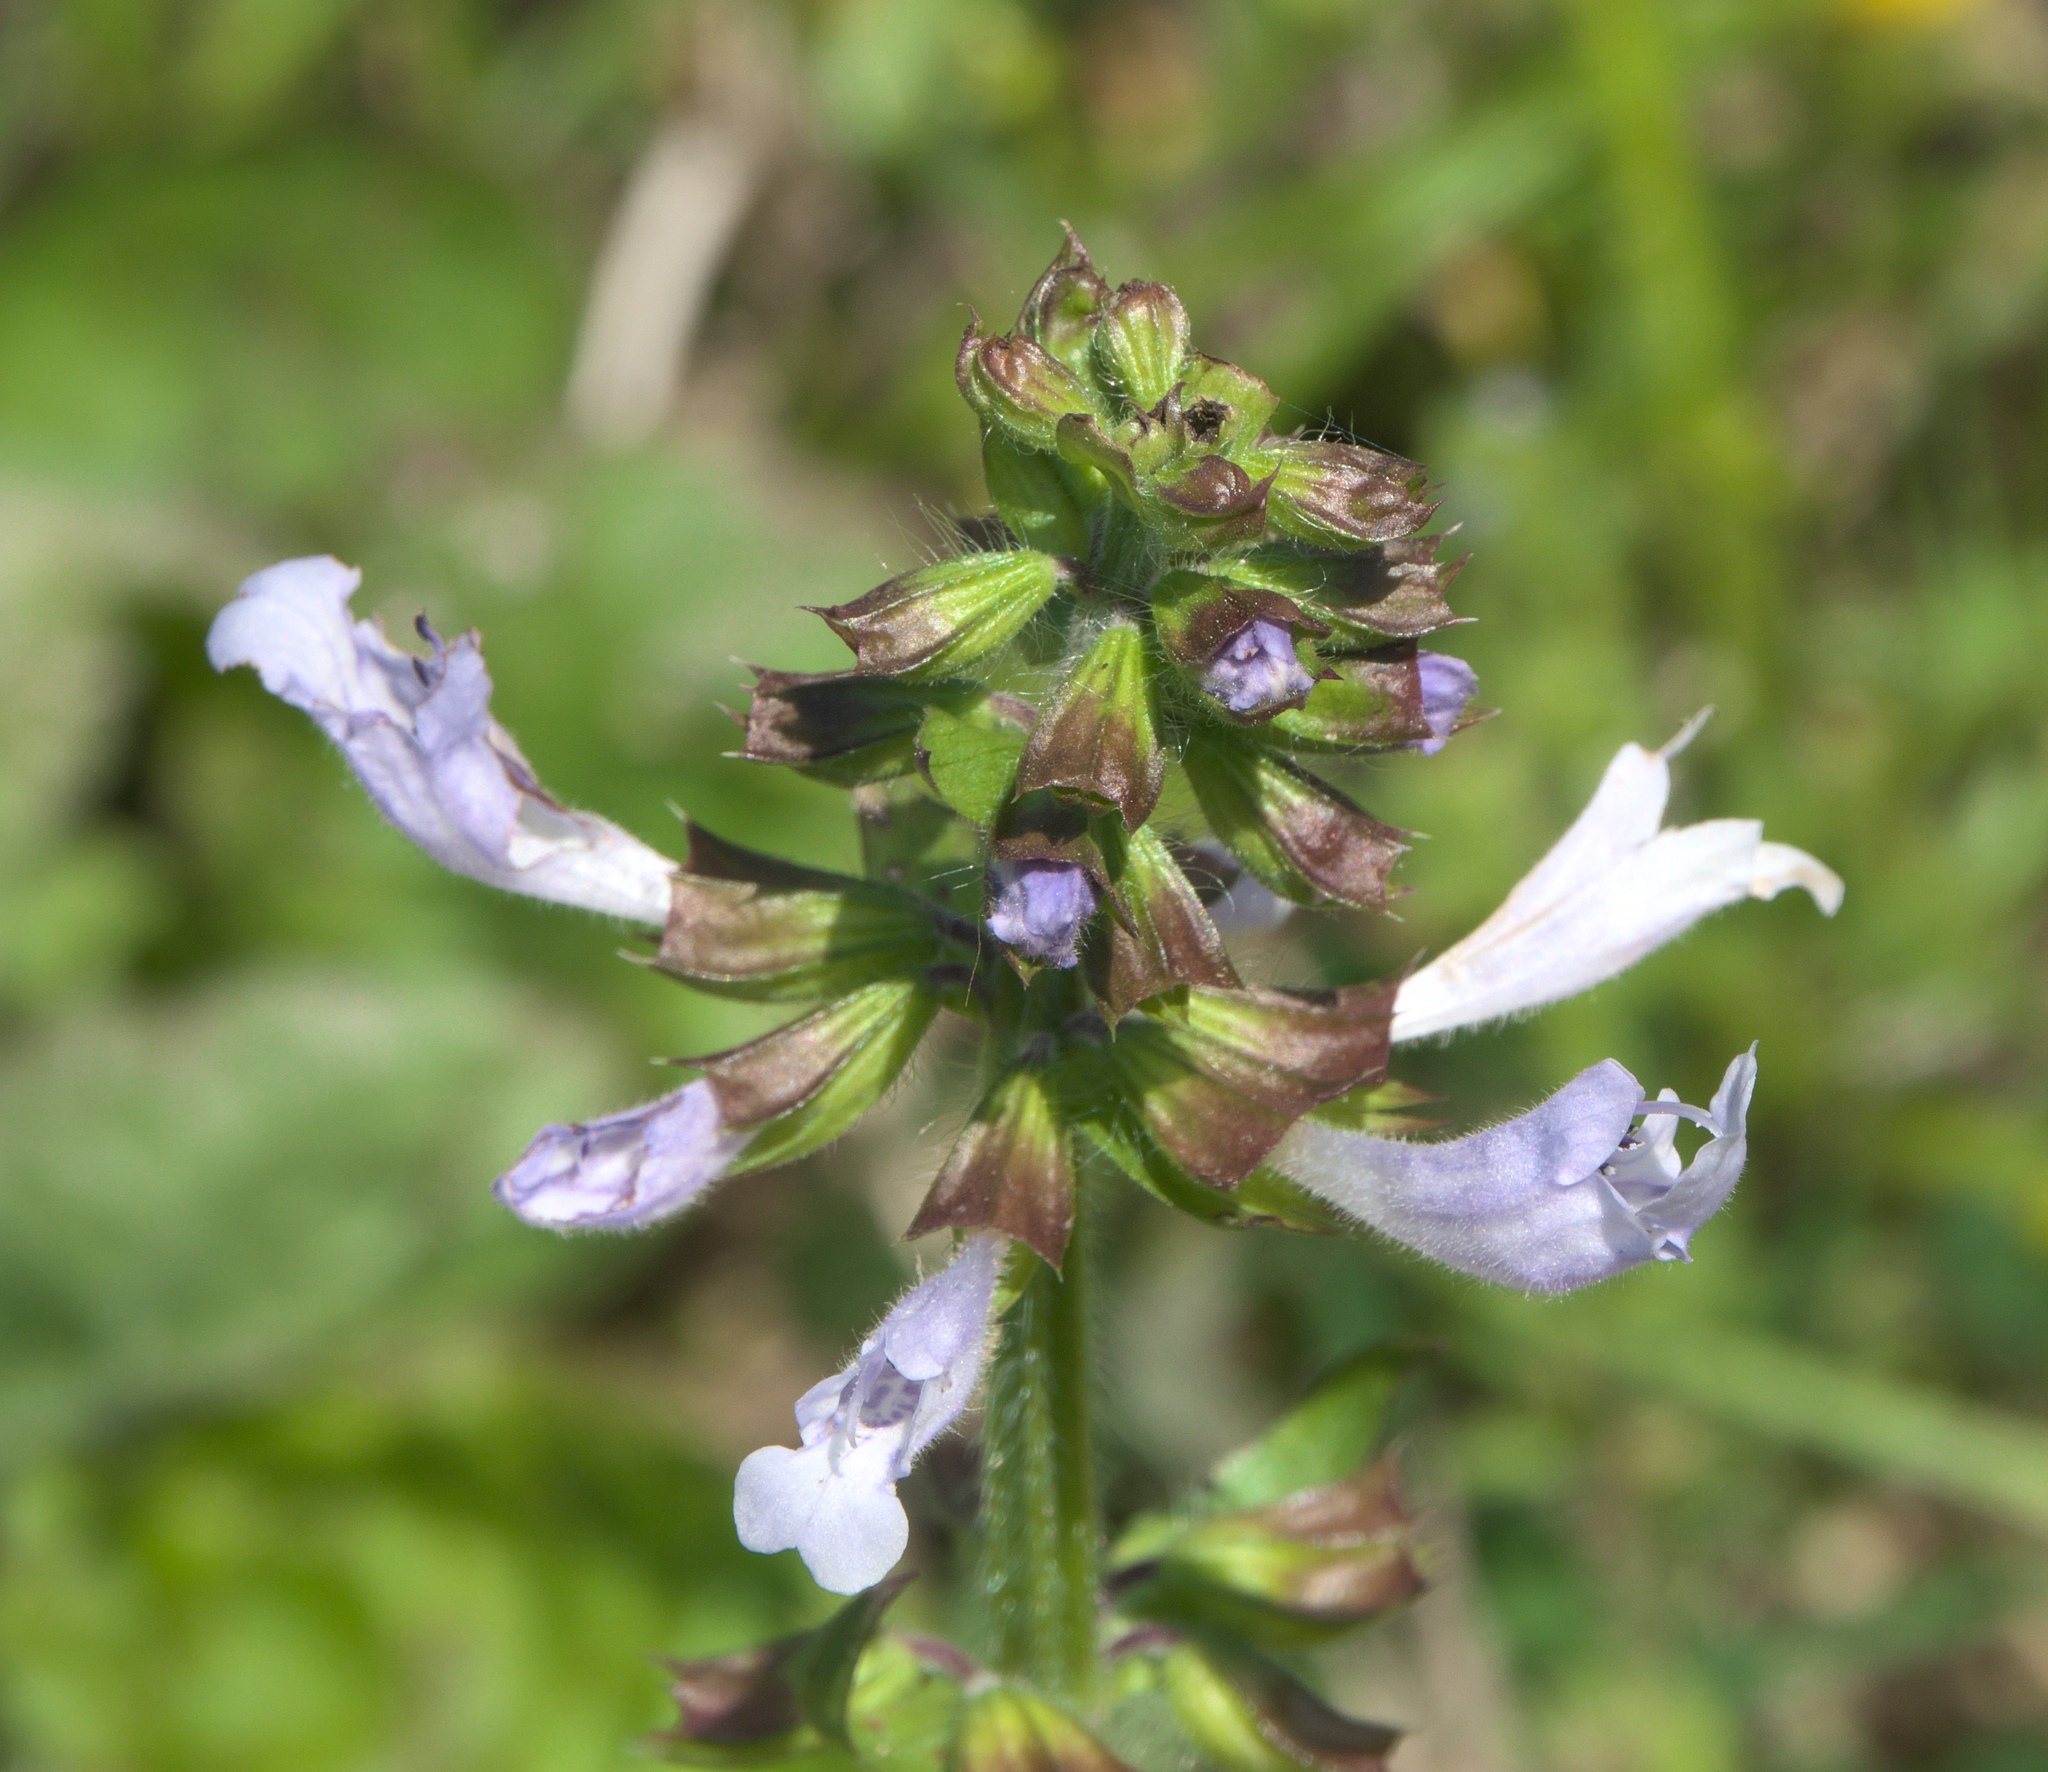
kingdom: Plantae
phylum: Tracheophyta
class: Magnoliopsida
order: Lamiales
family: Lamiaceae
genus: Salvia
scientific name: Salvia lyrata
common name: Cancerweed
